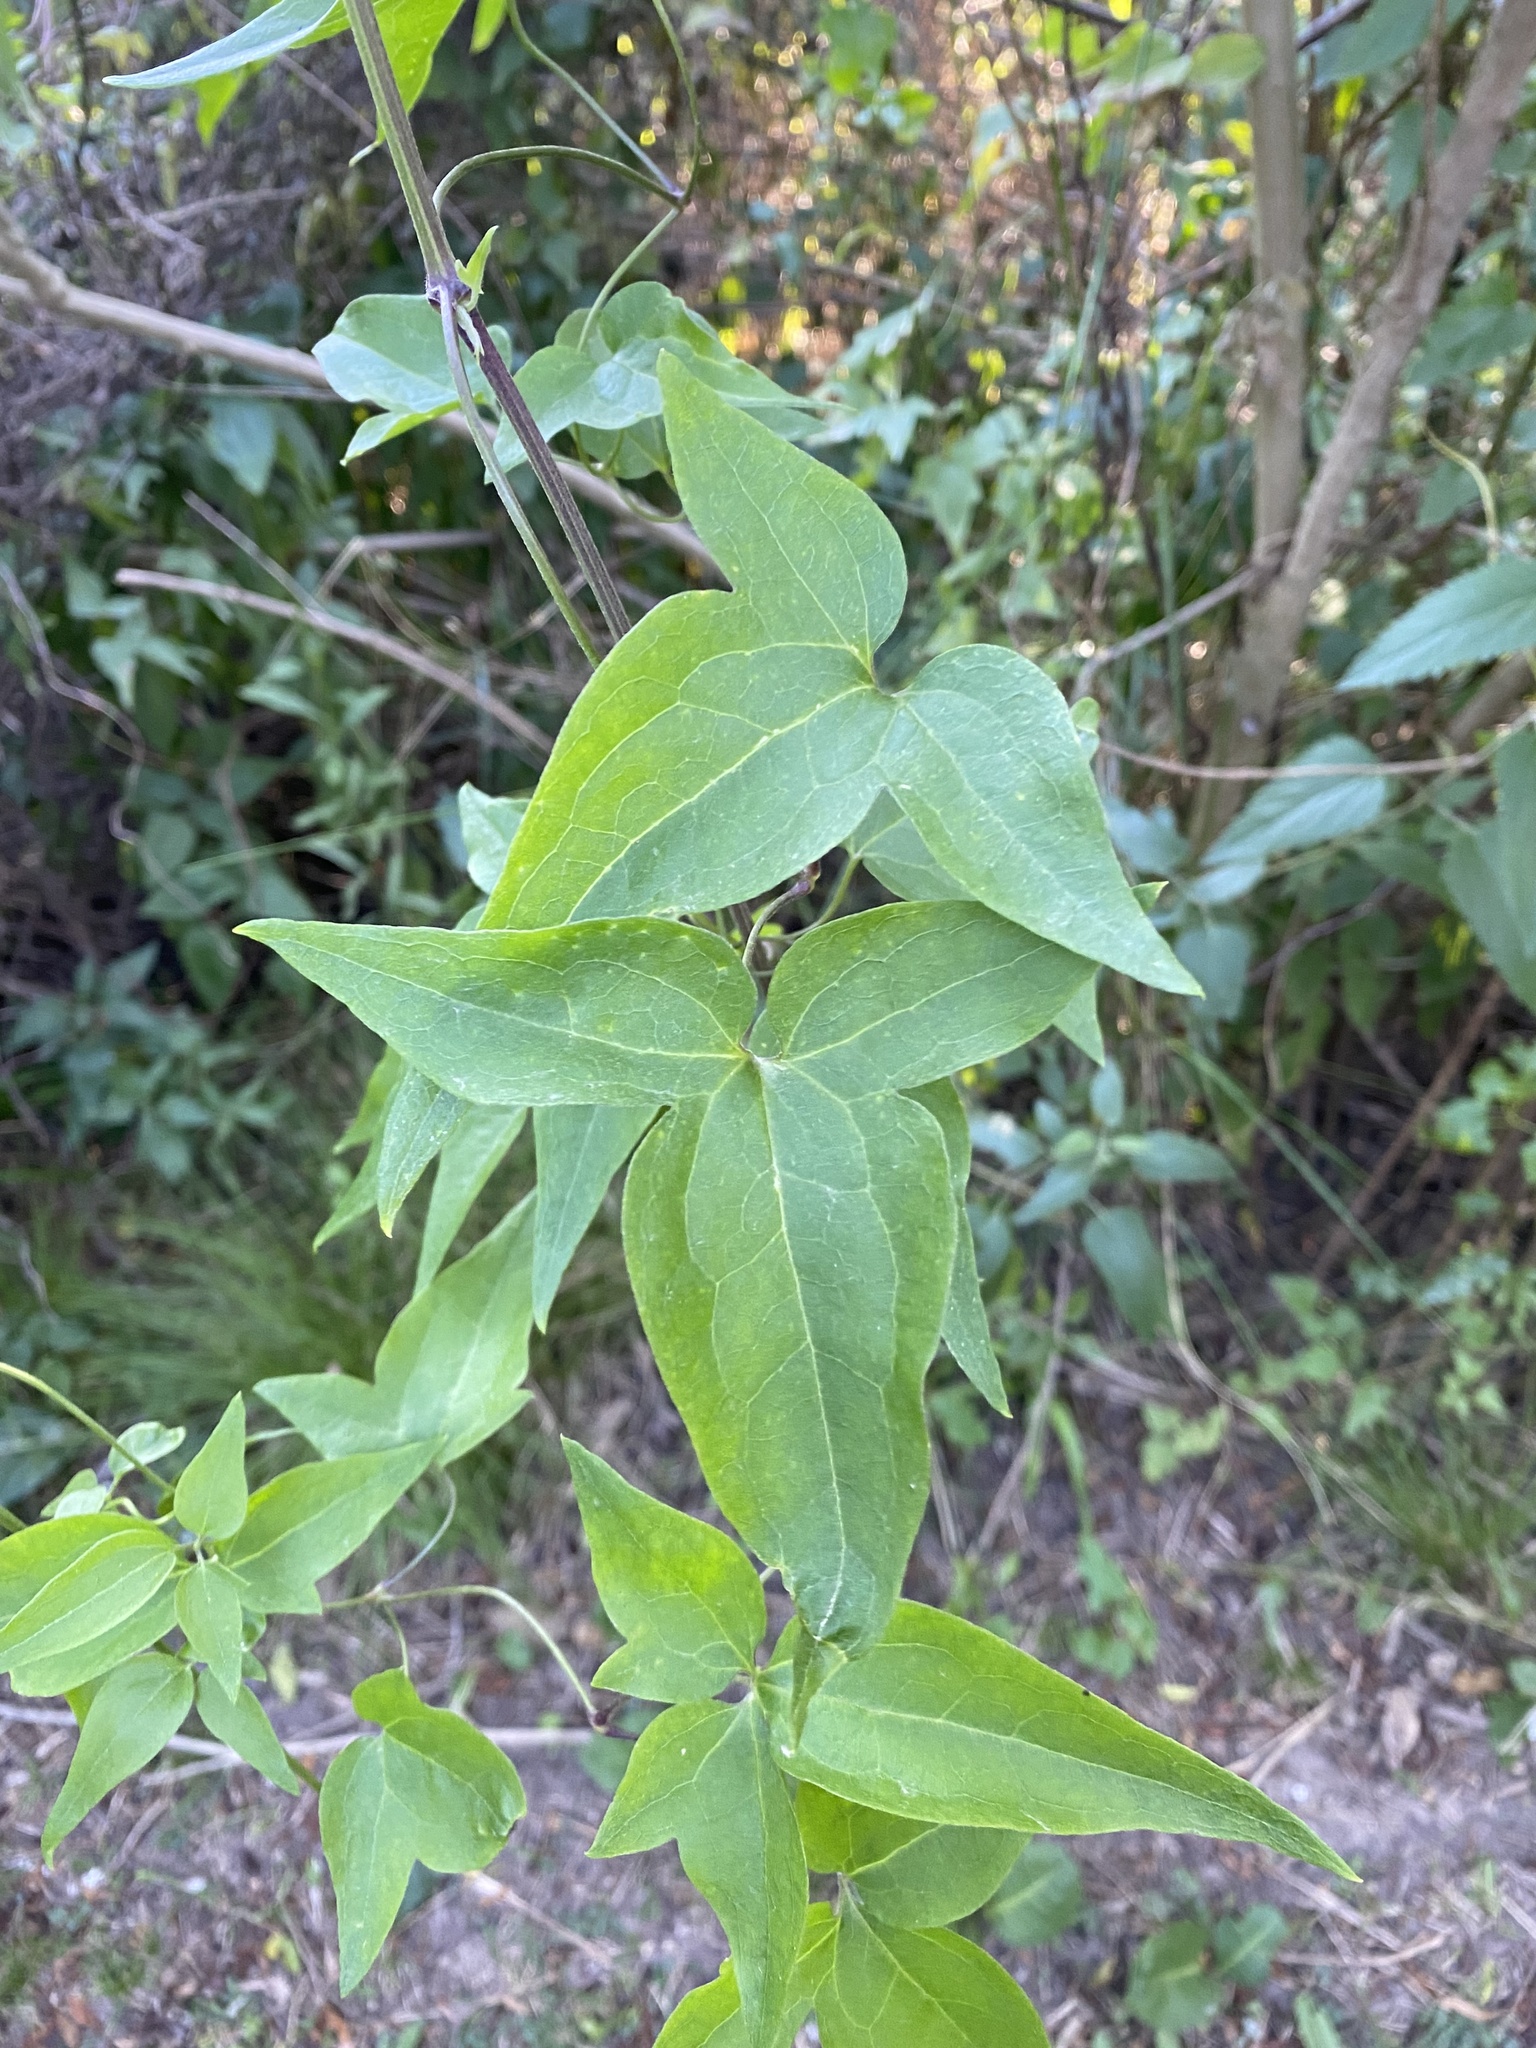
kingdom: Plantae
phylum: Tracheophyta
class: Magnoliopsida
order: Ranunculales
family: Ranunculaceae
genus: Clematis
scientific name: Clematis montevidensis
